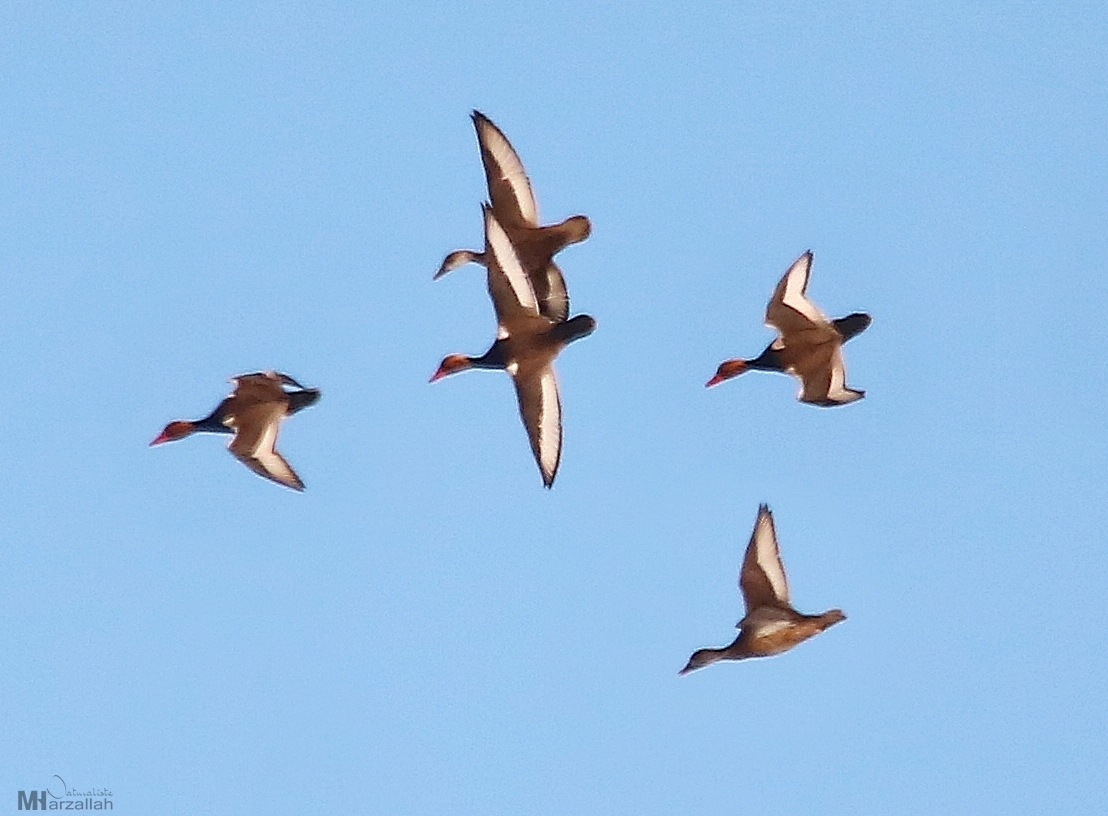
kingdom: Animalia
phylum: Chordata
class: Aves
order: Anseriformes
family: Anatidae
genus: Netta
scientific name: Netta rufina
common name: Red-crested pochard
